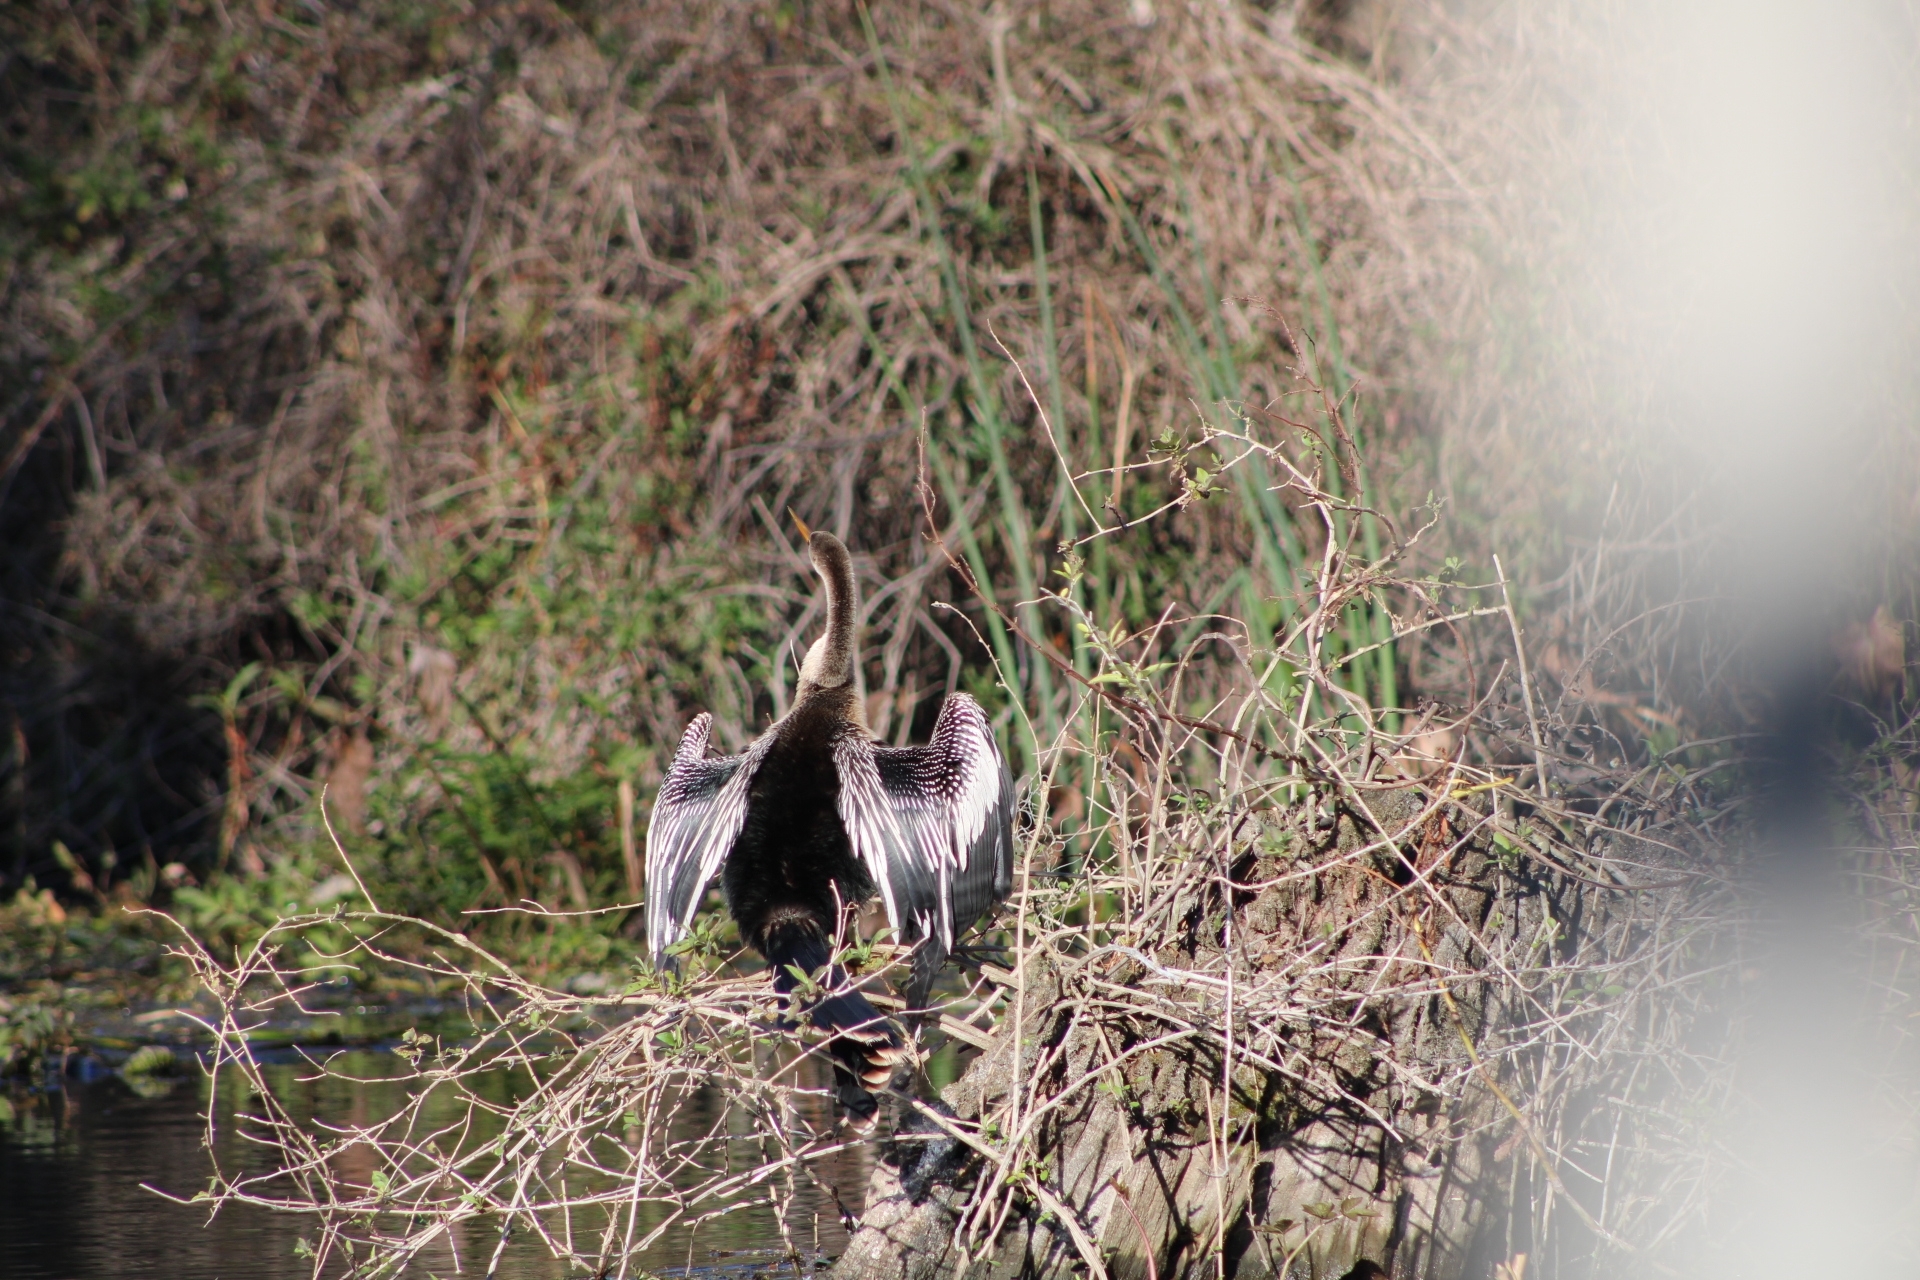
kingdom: Animalia
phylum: Chordata
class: Aves
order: Suliformes
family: Anhingidae
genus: Anhinga
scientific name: Anhinga anhinga
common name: Anhinga
